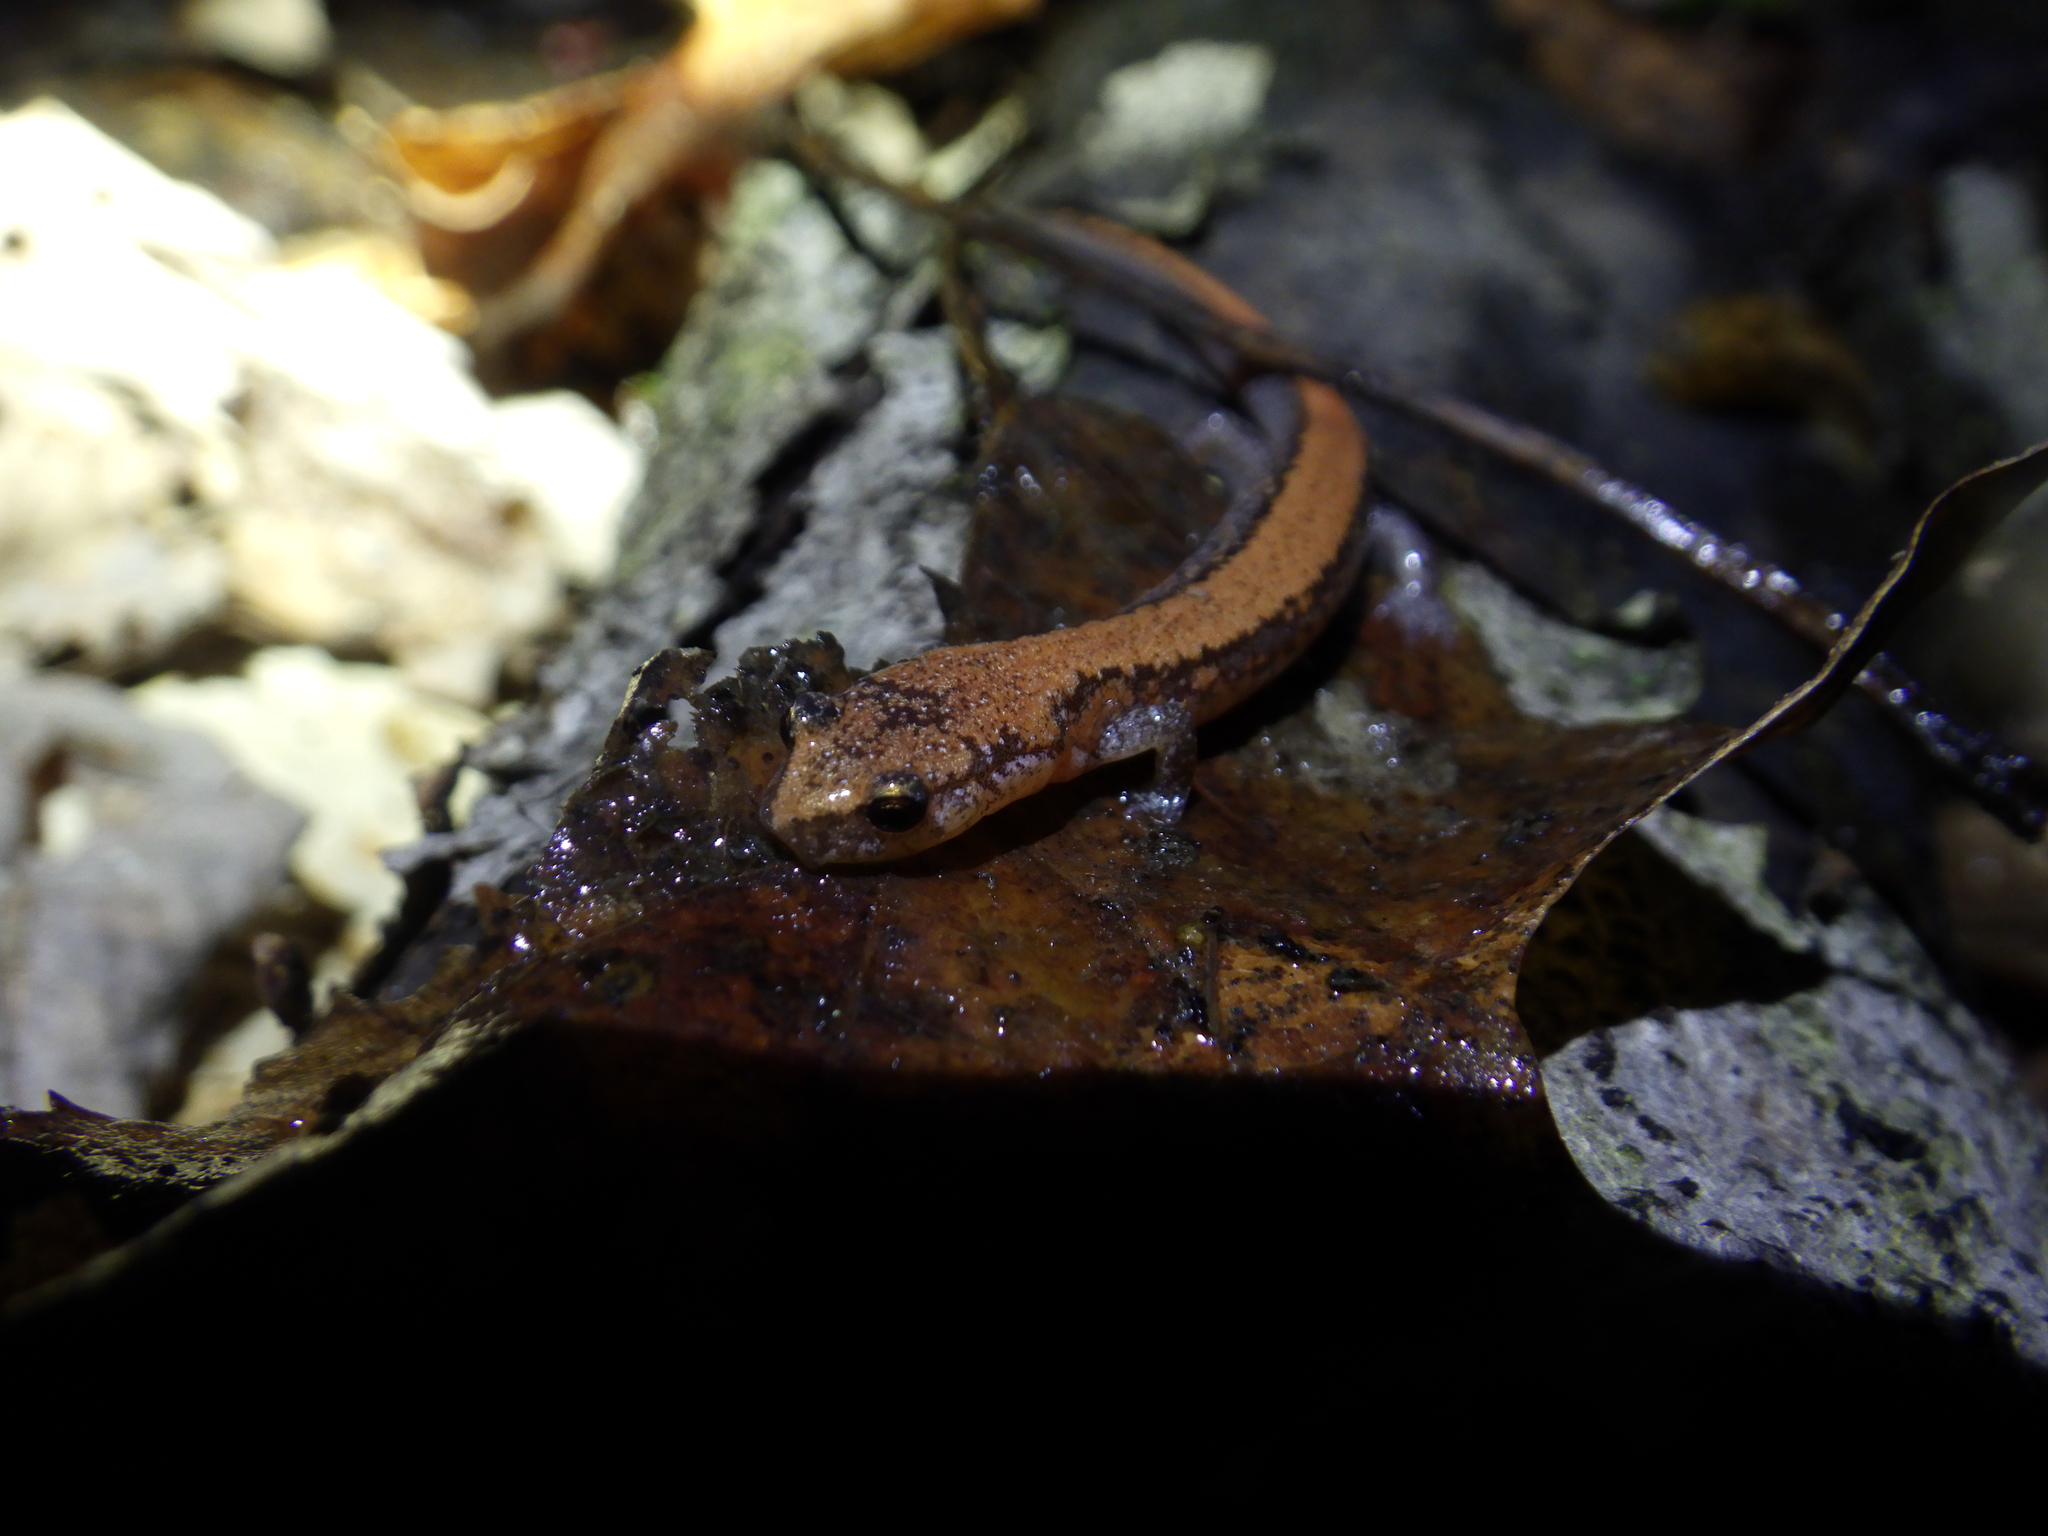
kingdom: Animalia
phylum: Chordata
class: Amphibia
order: Caudata
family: Plethodontidae
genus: Plethodon
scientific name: Plethodon cinereus
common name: Redback salamander
